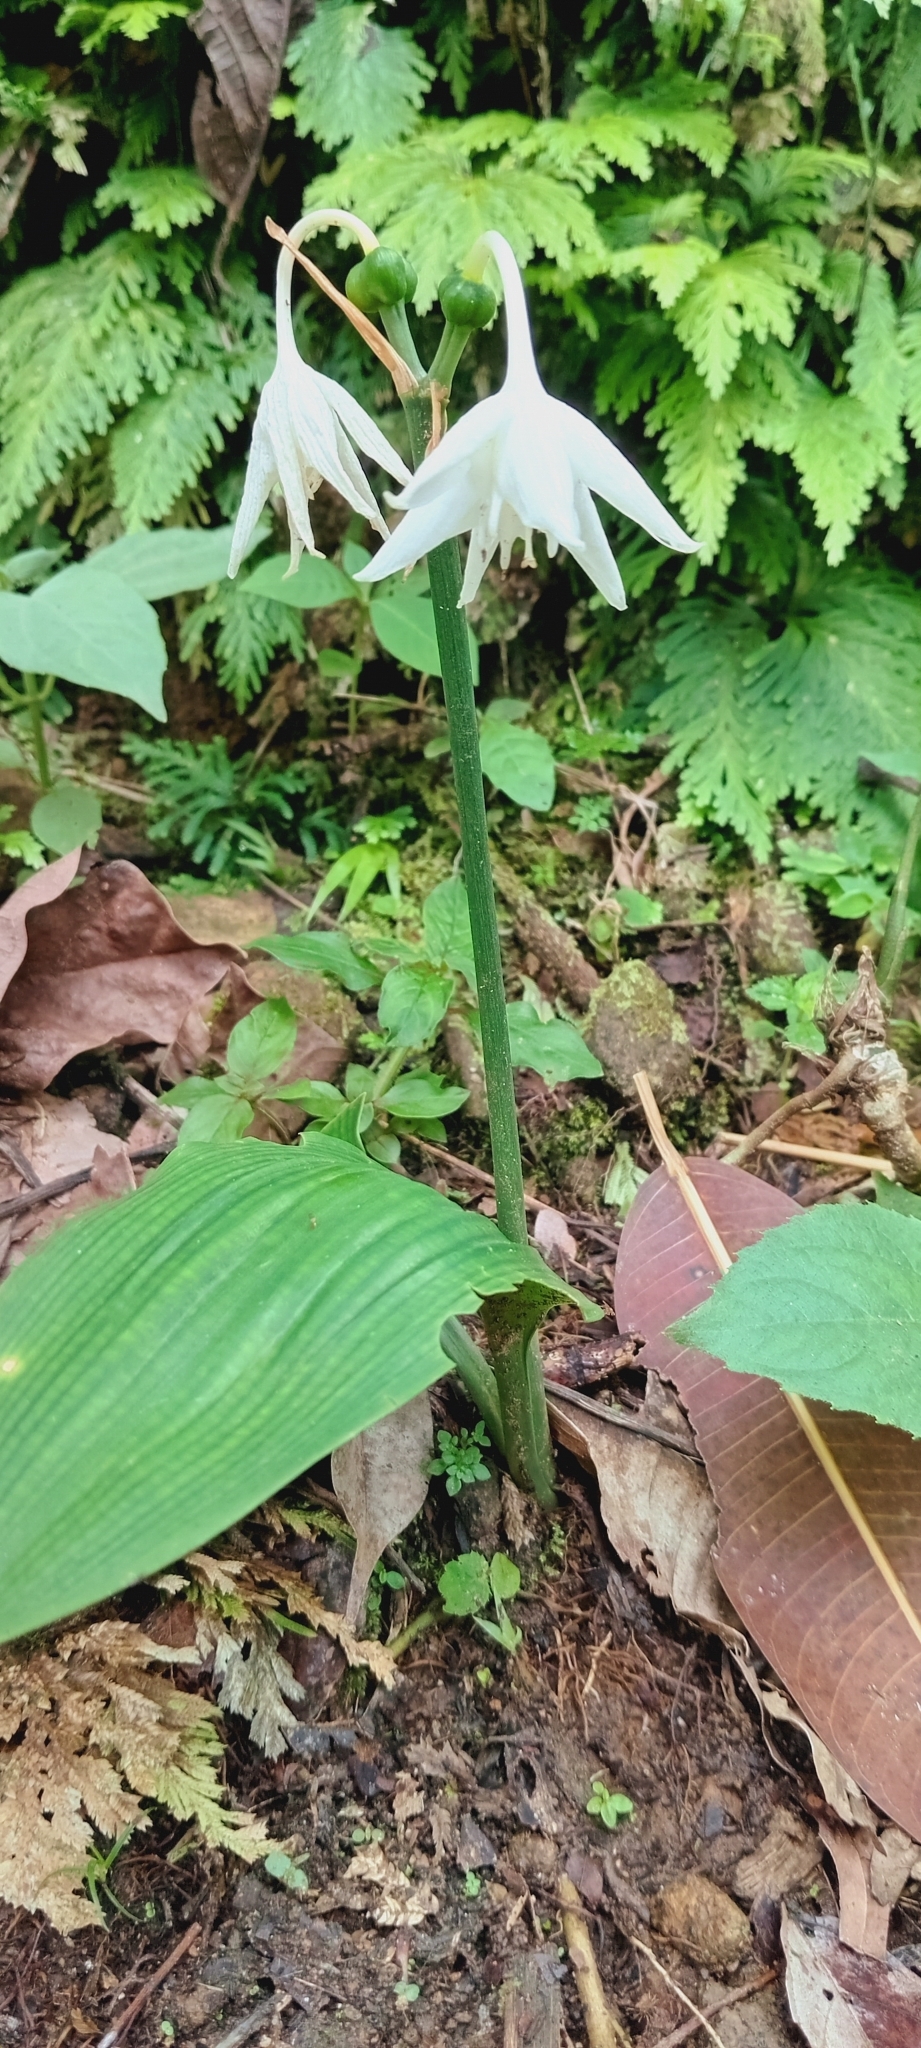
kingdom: Plantae
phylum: Tracheophyta
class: Liliopsida
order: Asparagales
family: Amaryllidaceae
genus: Urceolina
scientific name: Urceolina amazonica
